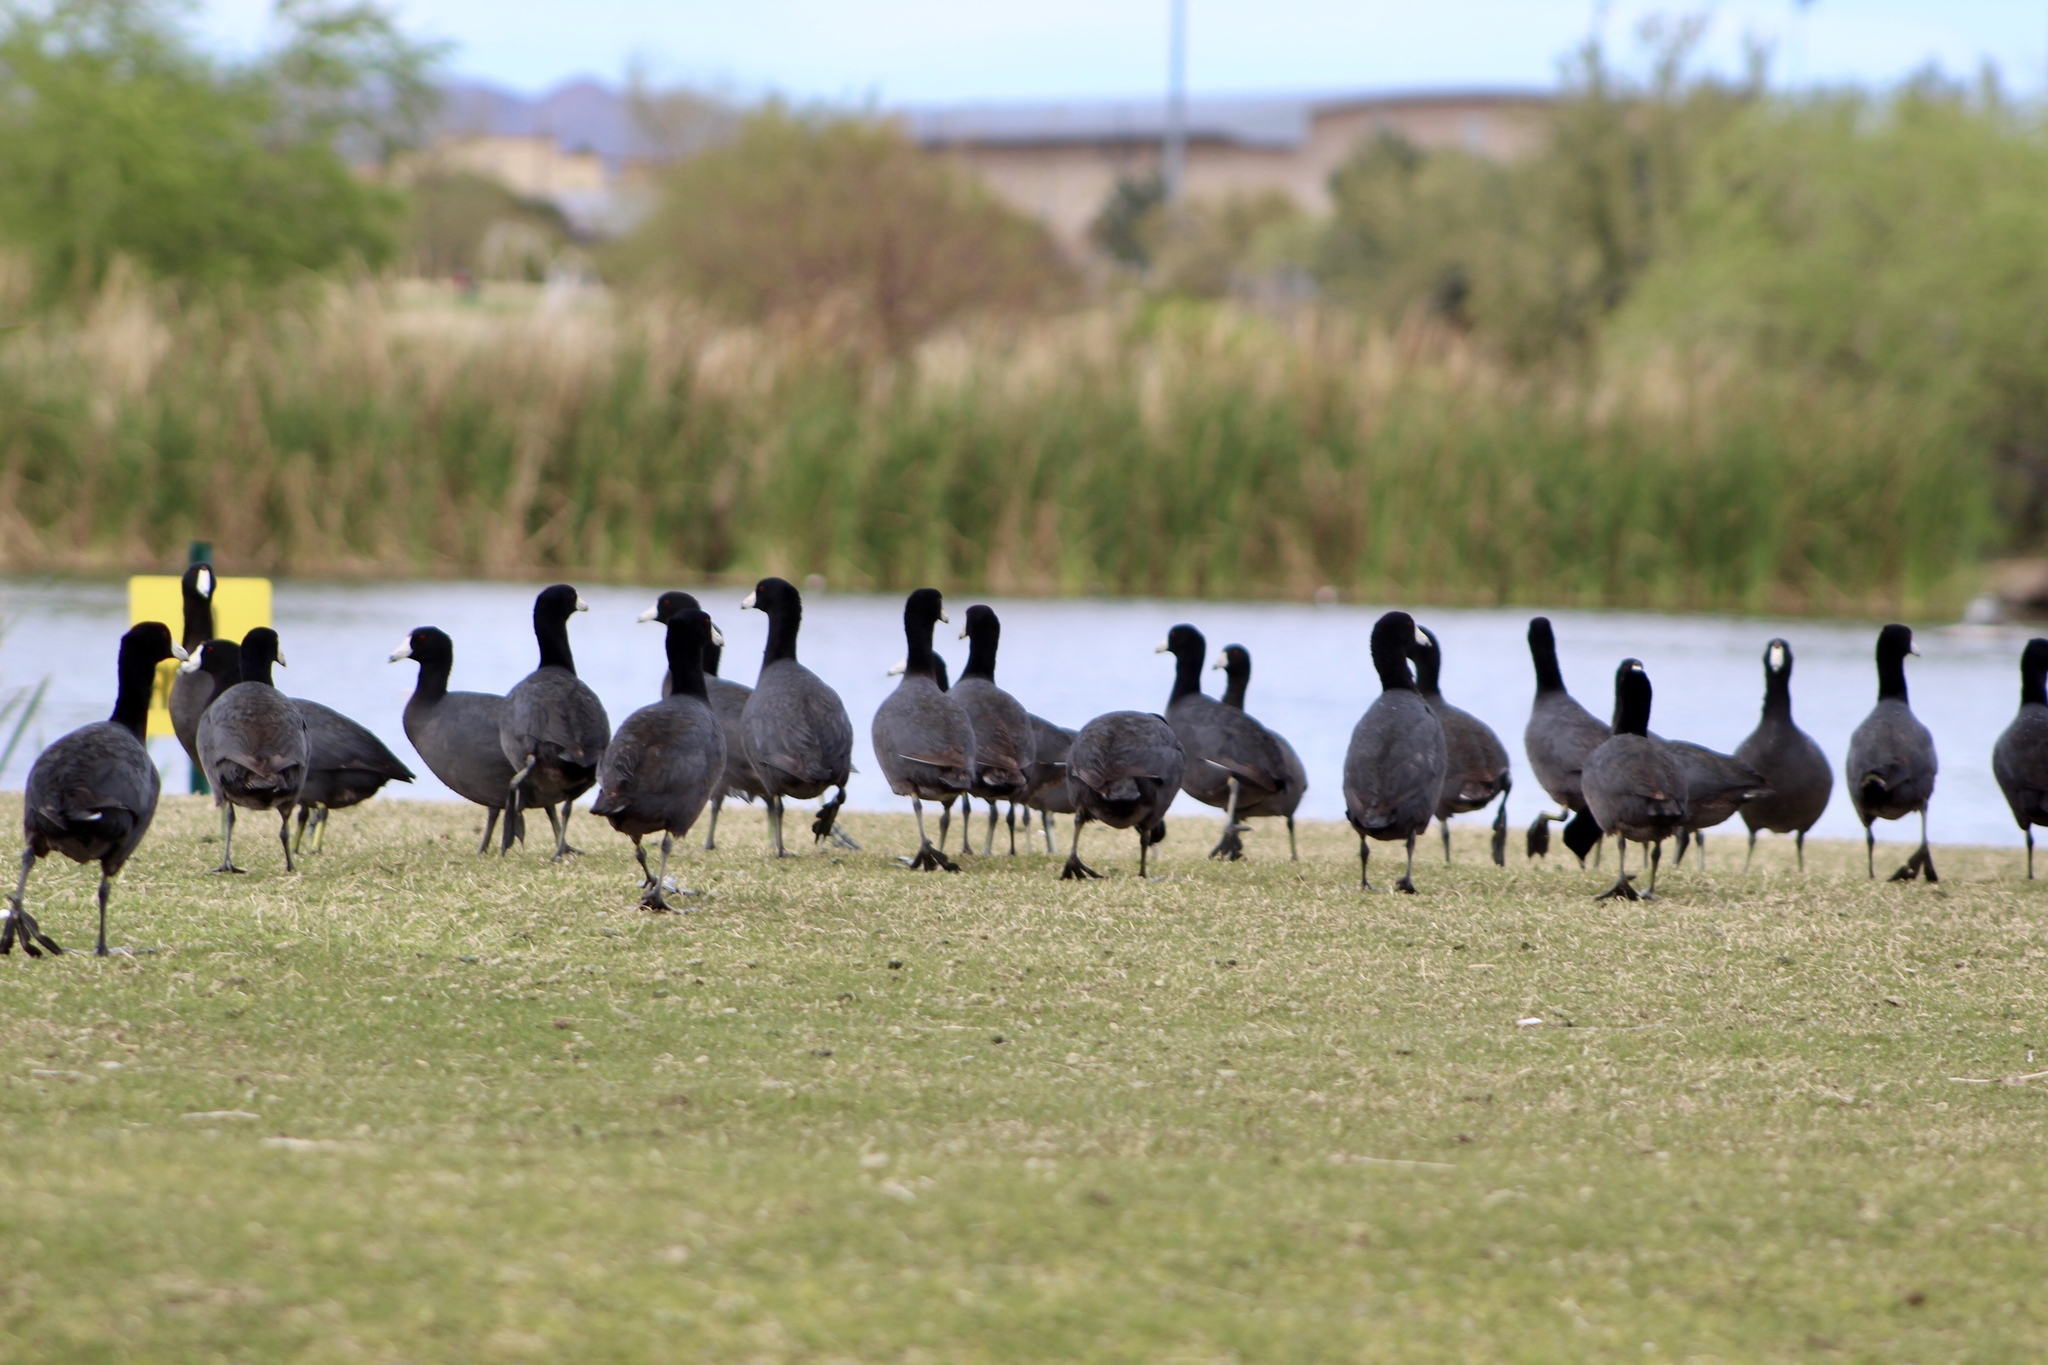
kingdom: Animalia
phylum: Chordata
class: Aves
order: Gruiformes
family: Rallidae
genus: Fulica
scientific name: Fulica americana
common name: American coot
